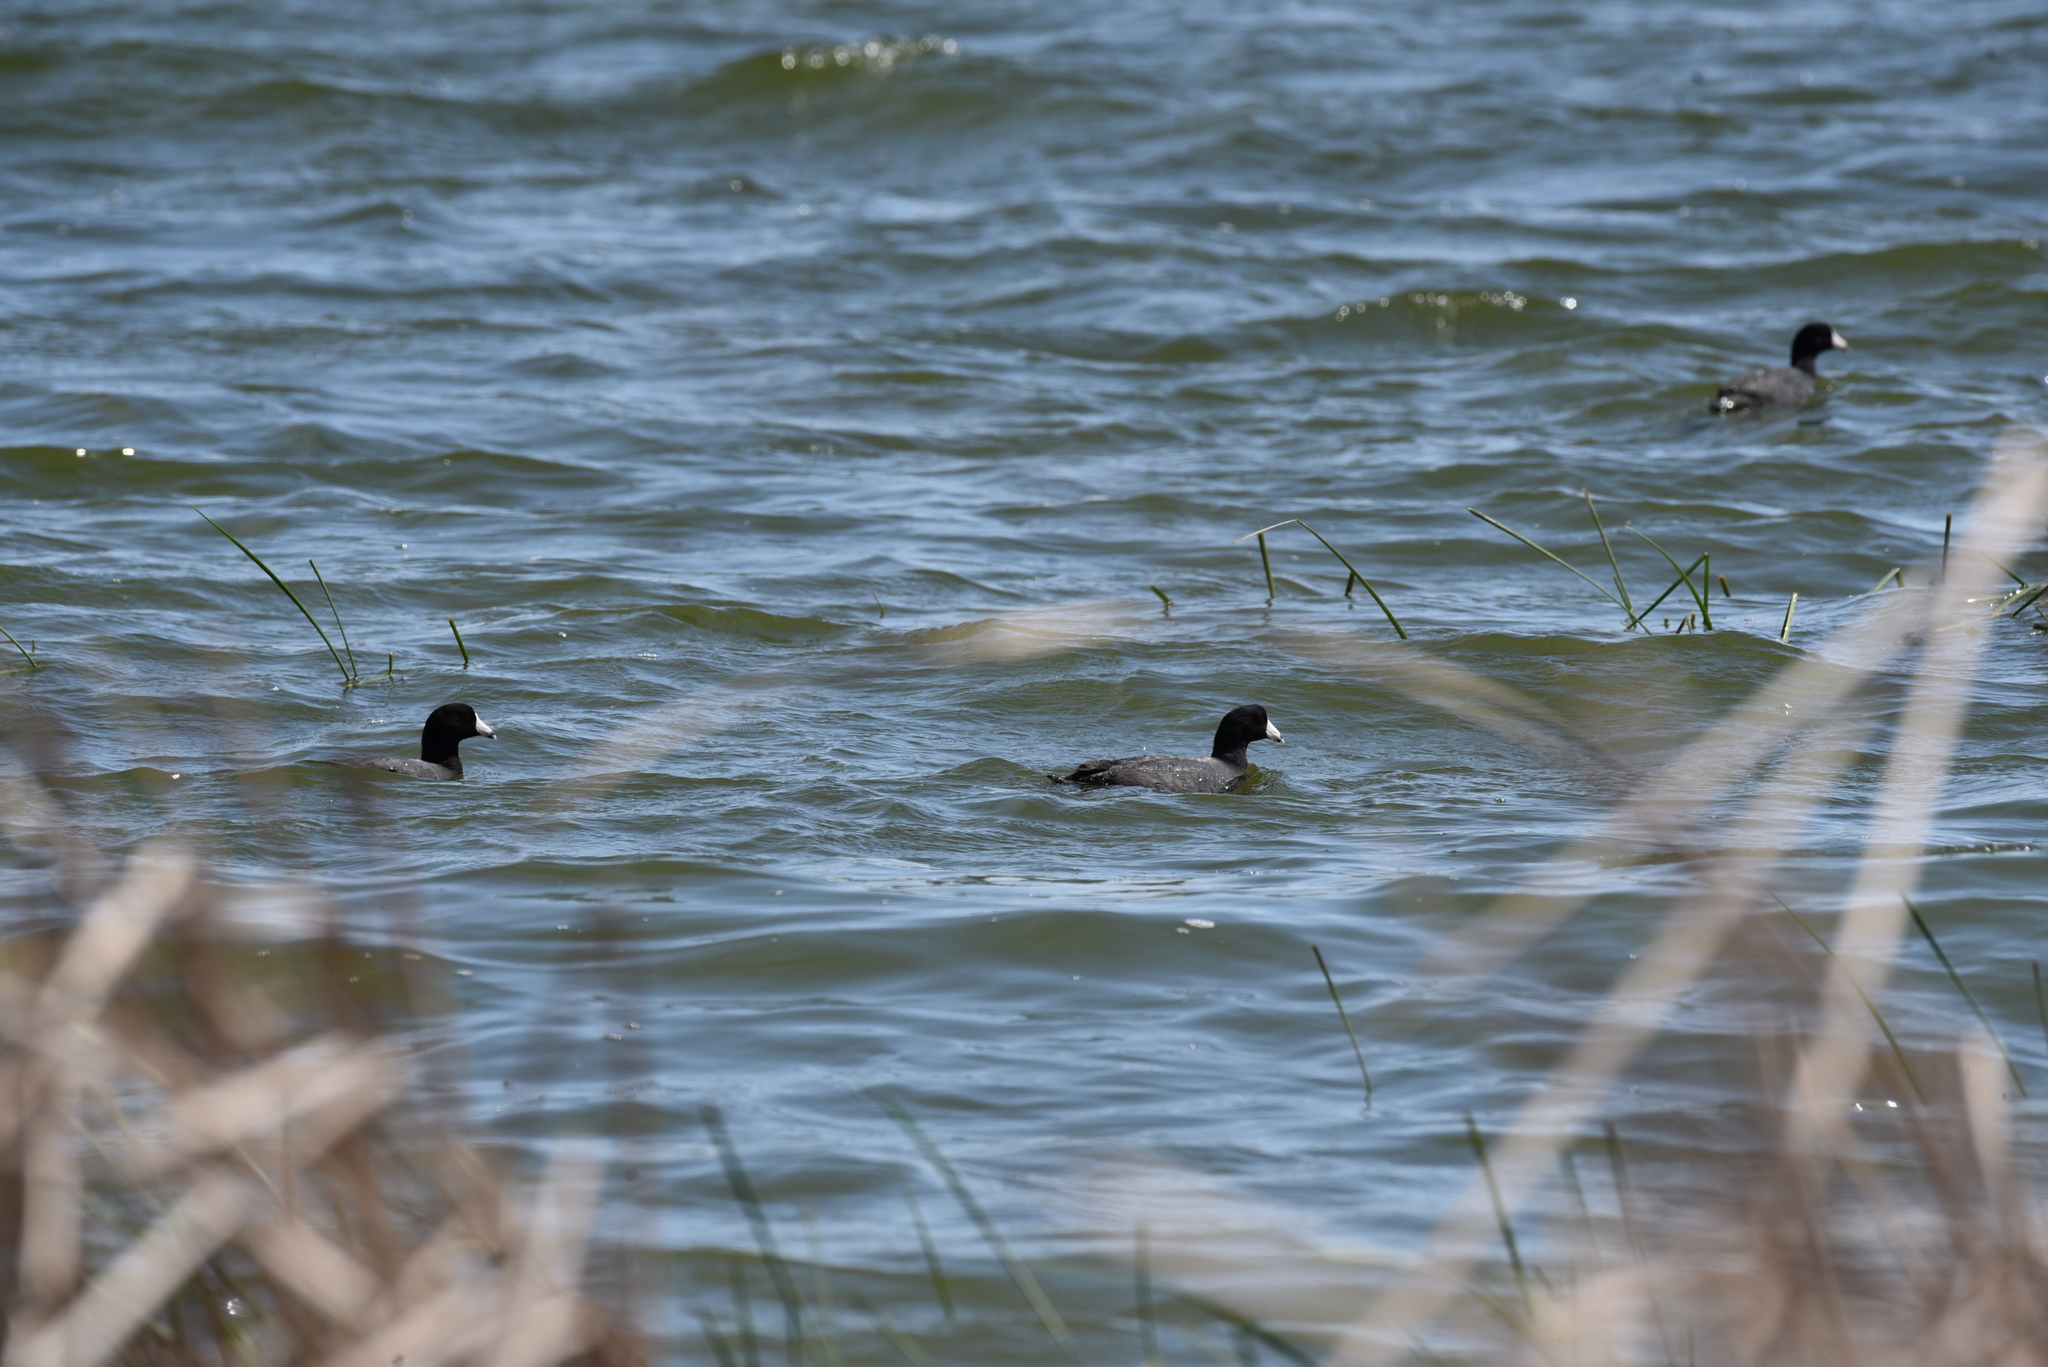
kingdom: Animalia
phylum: Chordata
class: Aves
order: Gruiformes
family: Rallidae
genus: Fulica
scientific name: Fulica americana
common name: American coot
